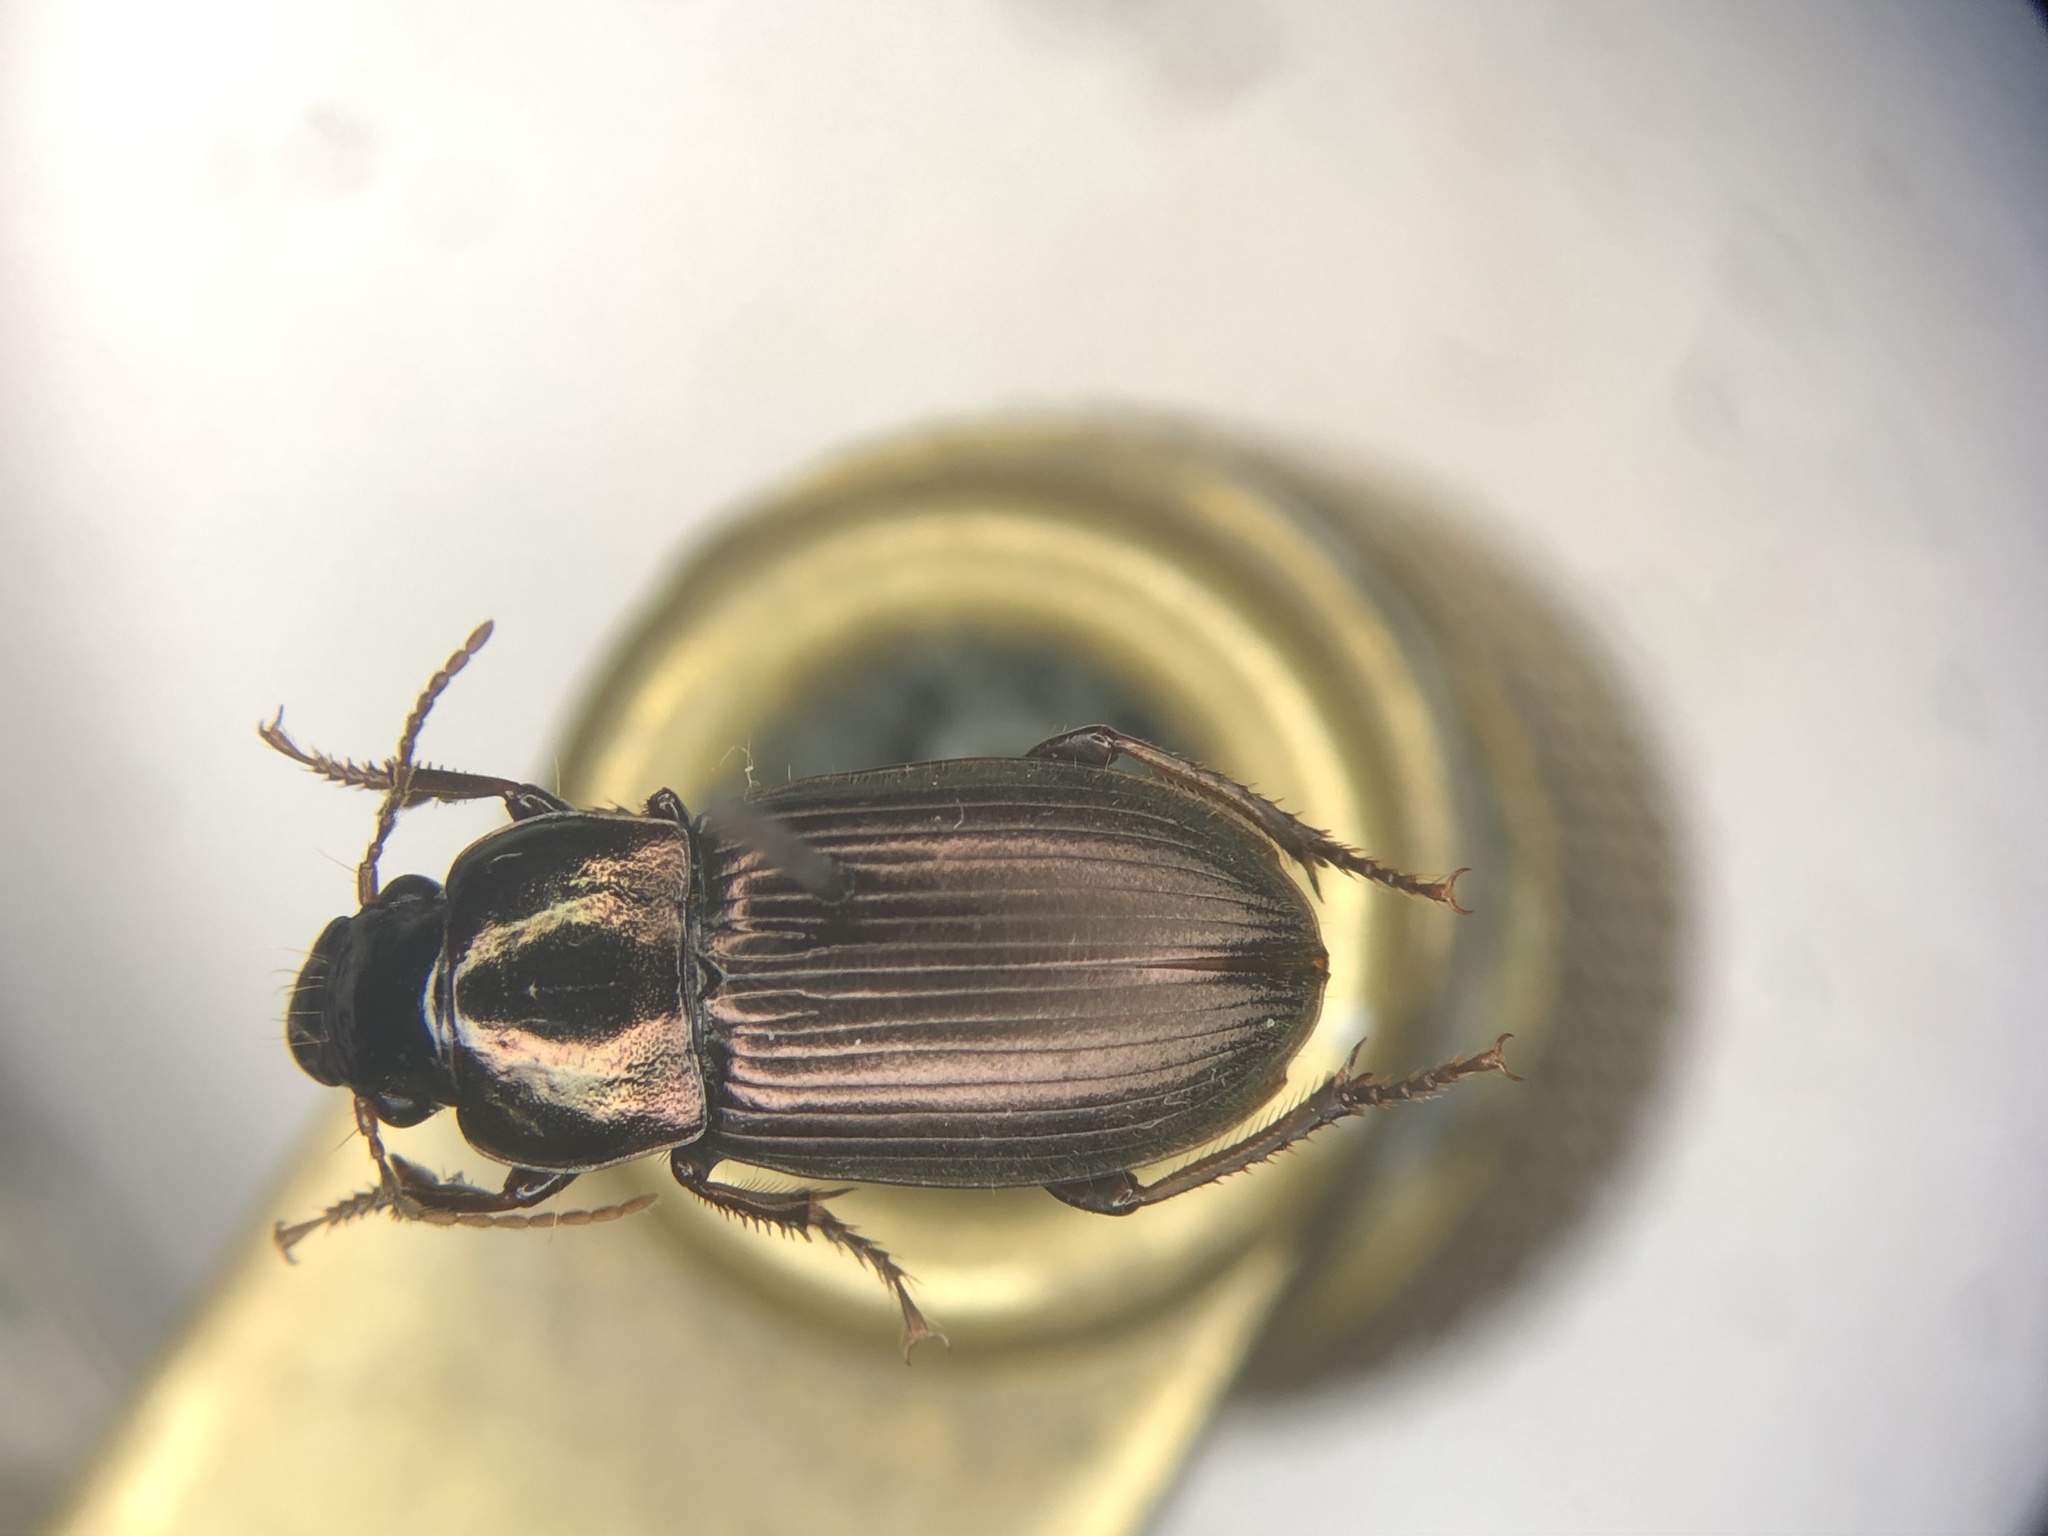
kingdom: Animalia
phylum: Arthropoda
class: Insecta
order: Coleoptera
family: Carabidae
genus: Harpalus
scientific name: Harpalus affinis
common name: Polychrome harp ground beetle
